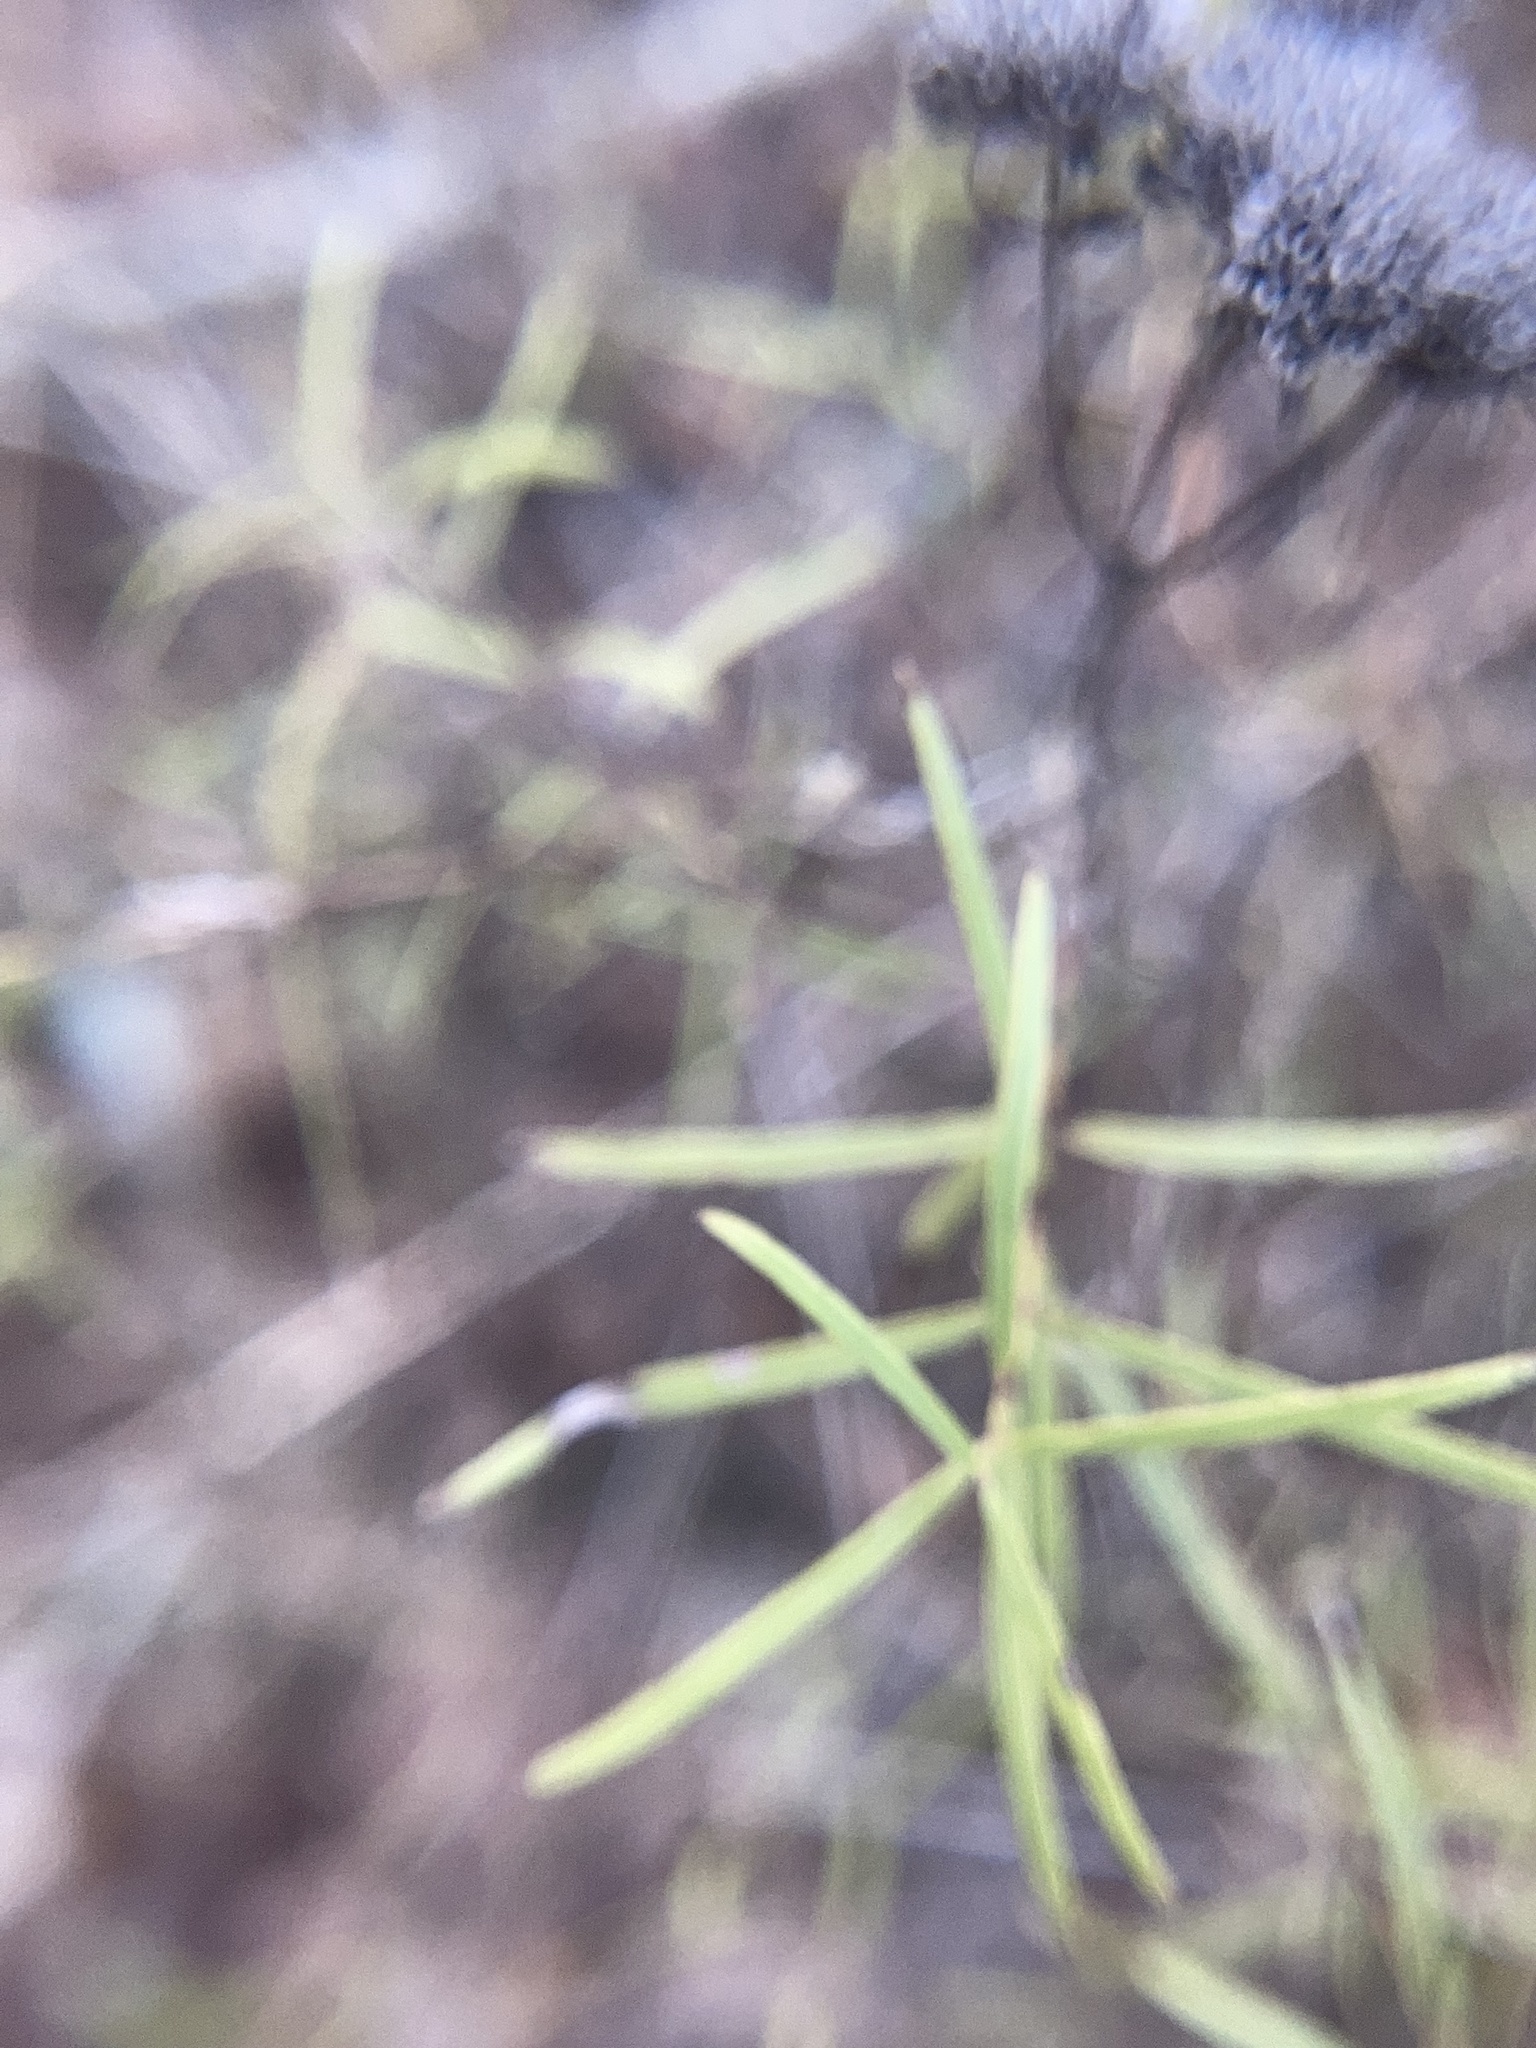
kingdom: Plantae
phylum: Tracheophyta
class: Magnoliopsida
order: Lamiales
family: Lamiaceae
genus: Pycnanthemum
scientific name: Pycnanthemum tenuifolium
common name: Narrow-leaf mountain-mint
